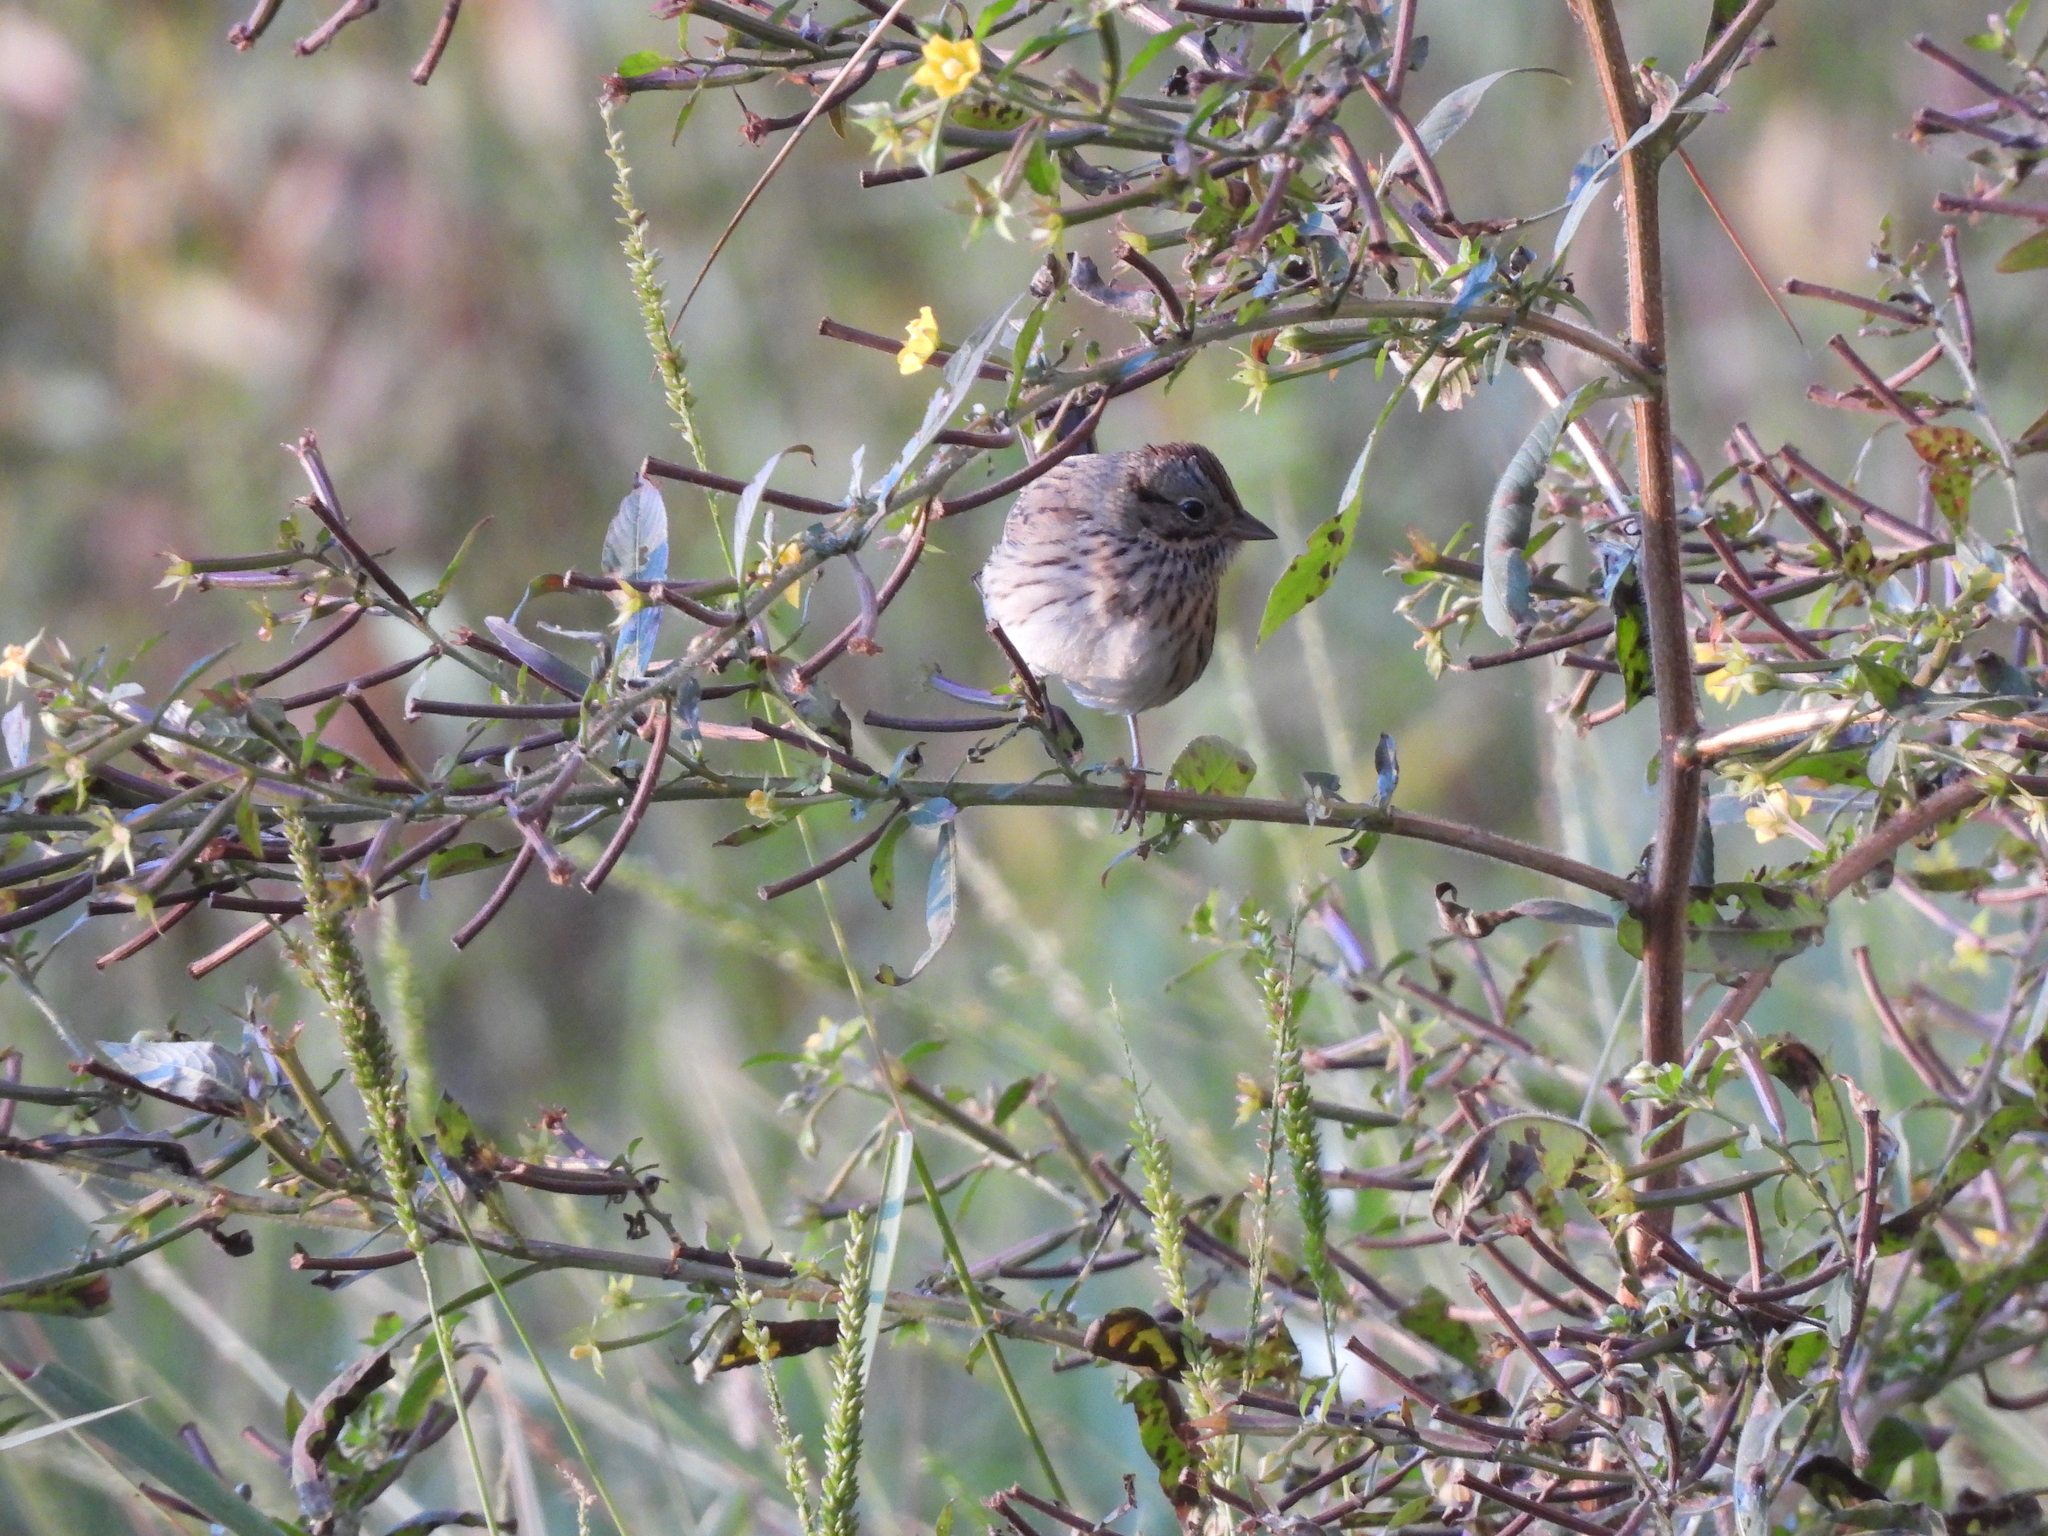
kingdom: Animalia
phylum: Chordata
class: Aves
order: Passeriformes
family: Passerellidae
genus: Melospiza
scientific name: Melospiza lincolnii
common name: Lincoln's sparrow
